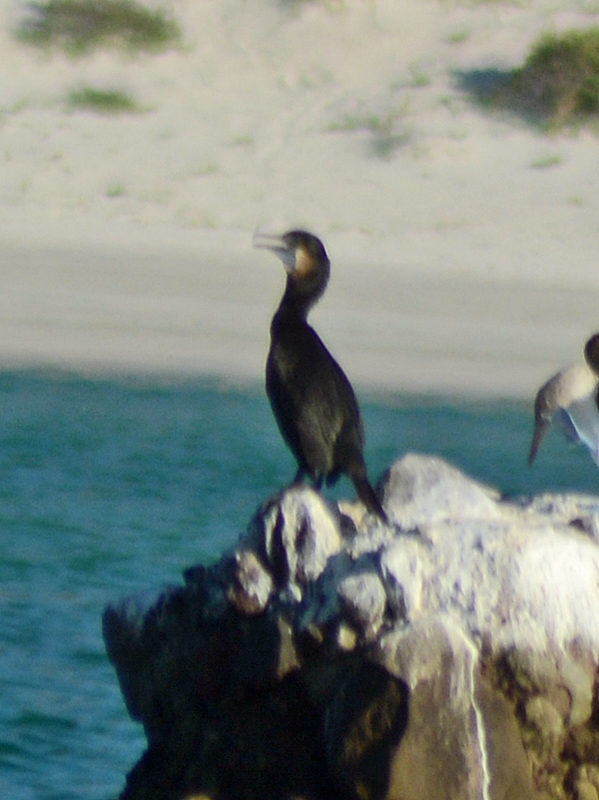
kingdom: Animalia
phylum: Chordata
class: Aves
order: Suliformes
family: Phalacrocoracidae
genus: Urile
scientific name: Urile penicillatus
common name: Brandt's cormorant
